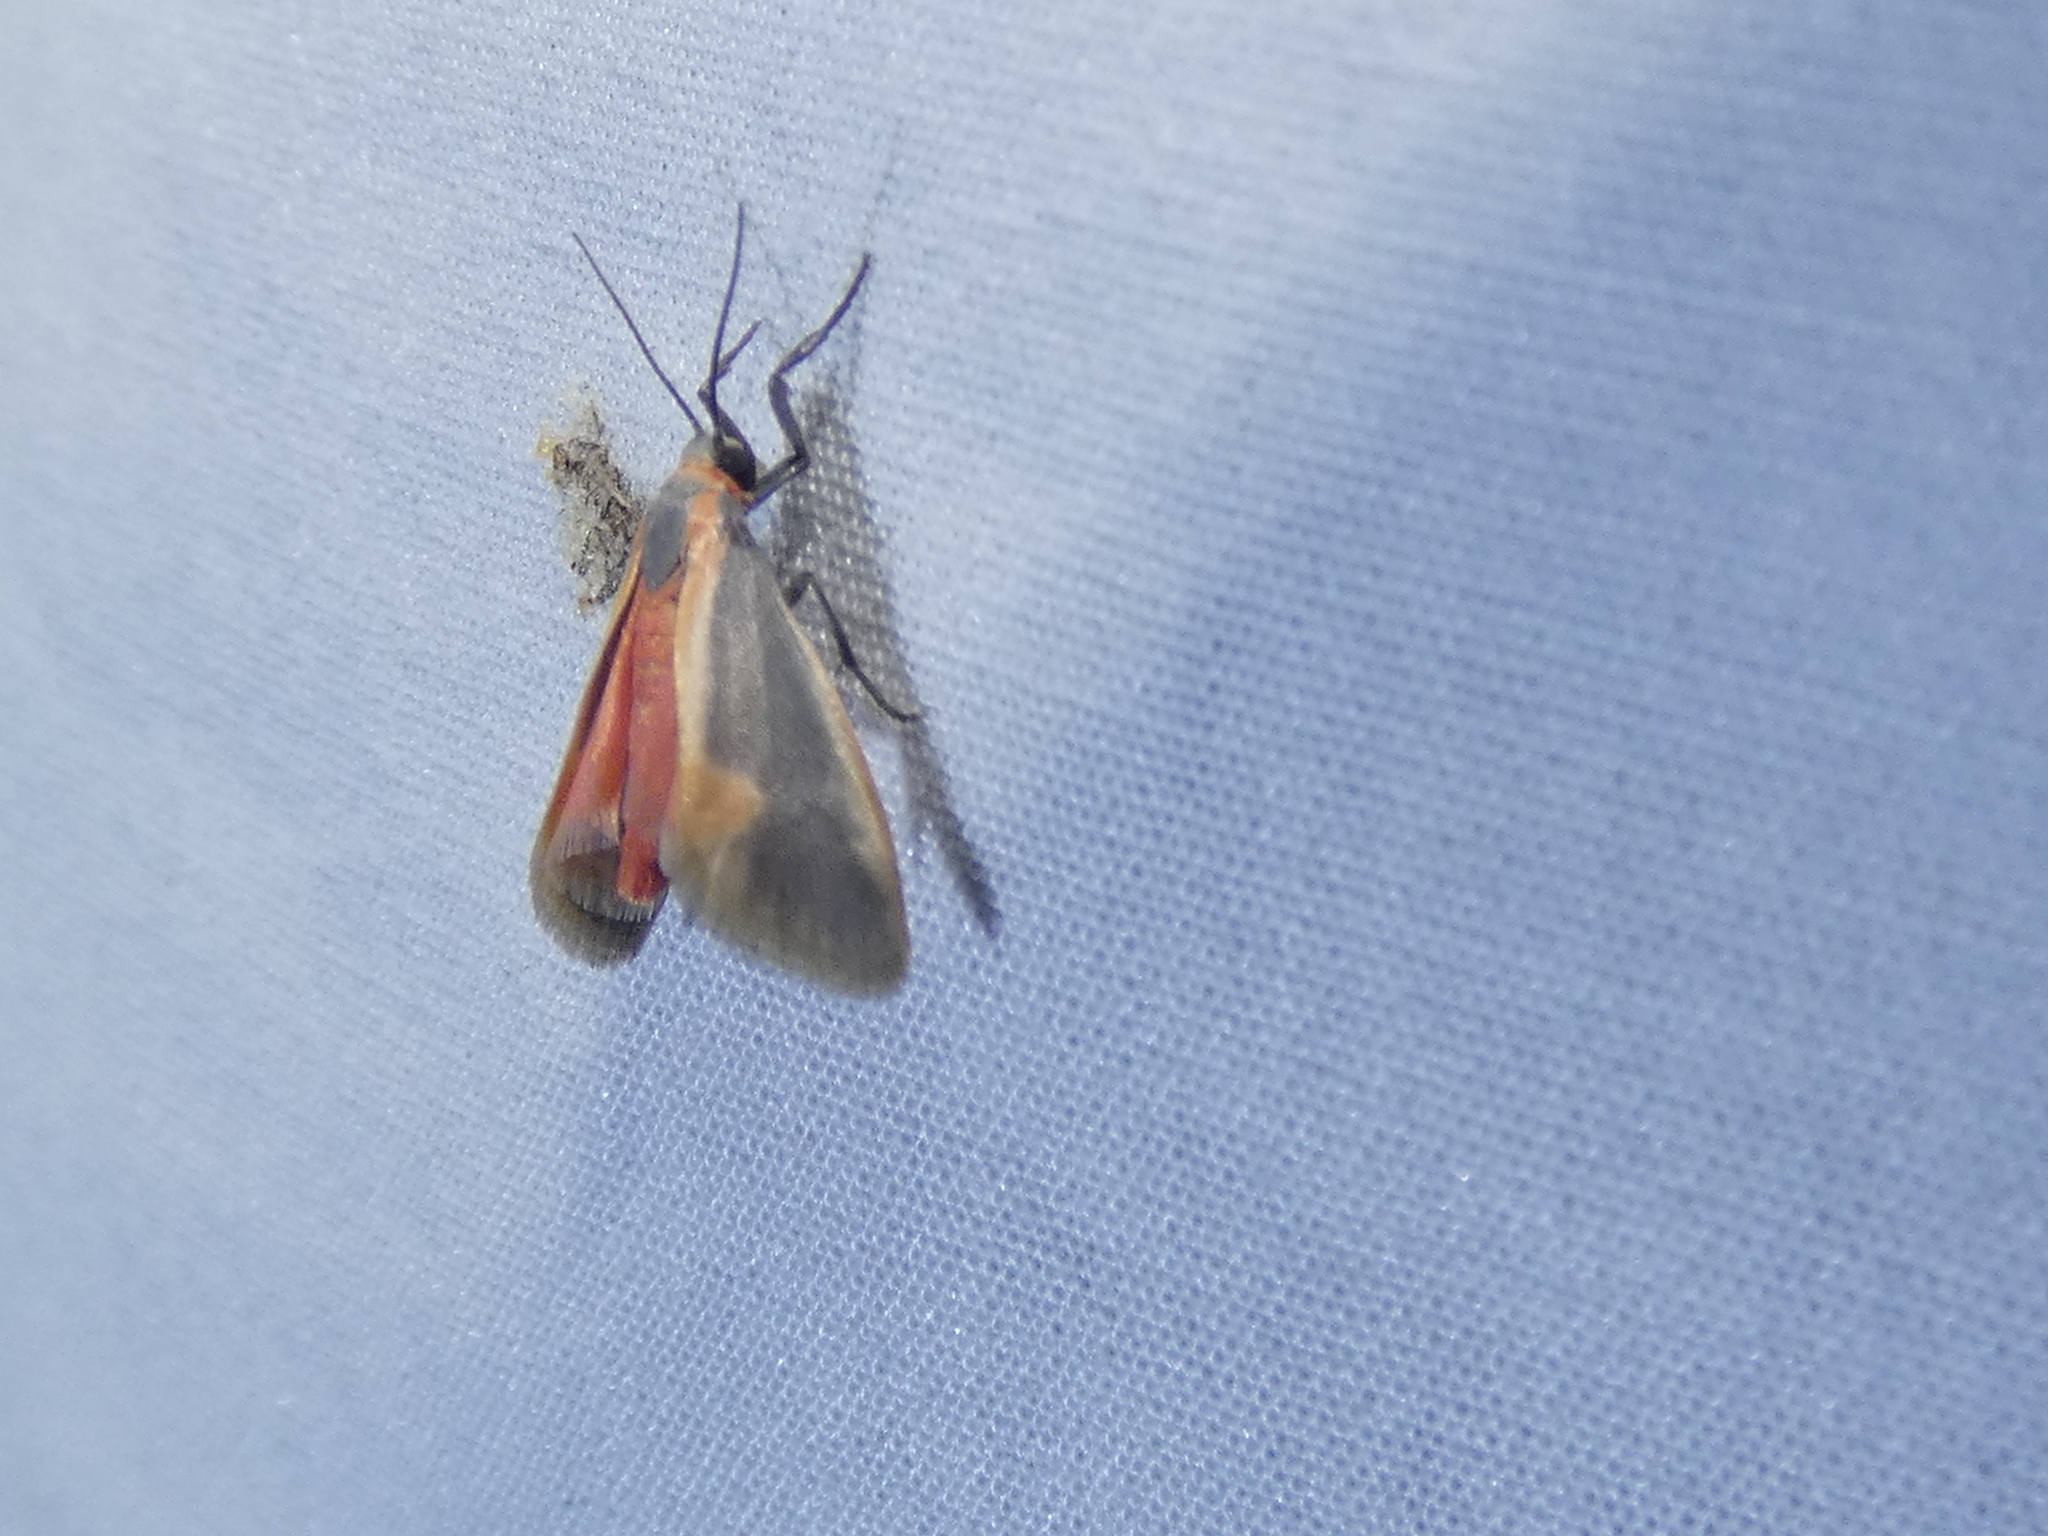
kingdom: Animalia
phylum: Arthropoda
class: Insecta
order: Lepidoptera
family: Erebidae
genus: Cisthene
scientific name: Cisthene plumbea
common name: Lead colored lichen moth
